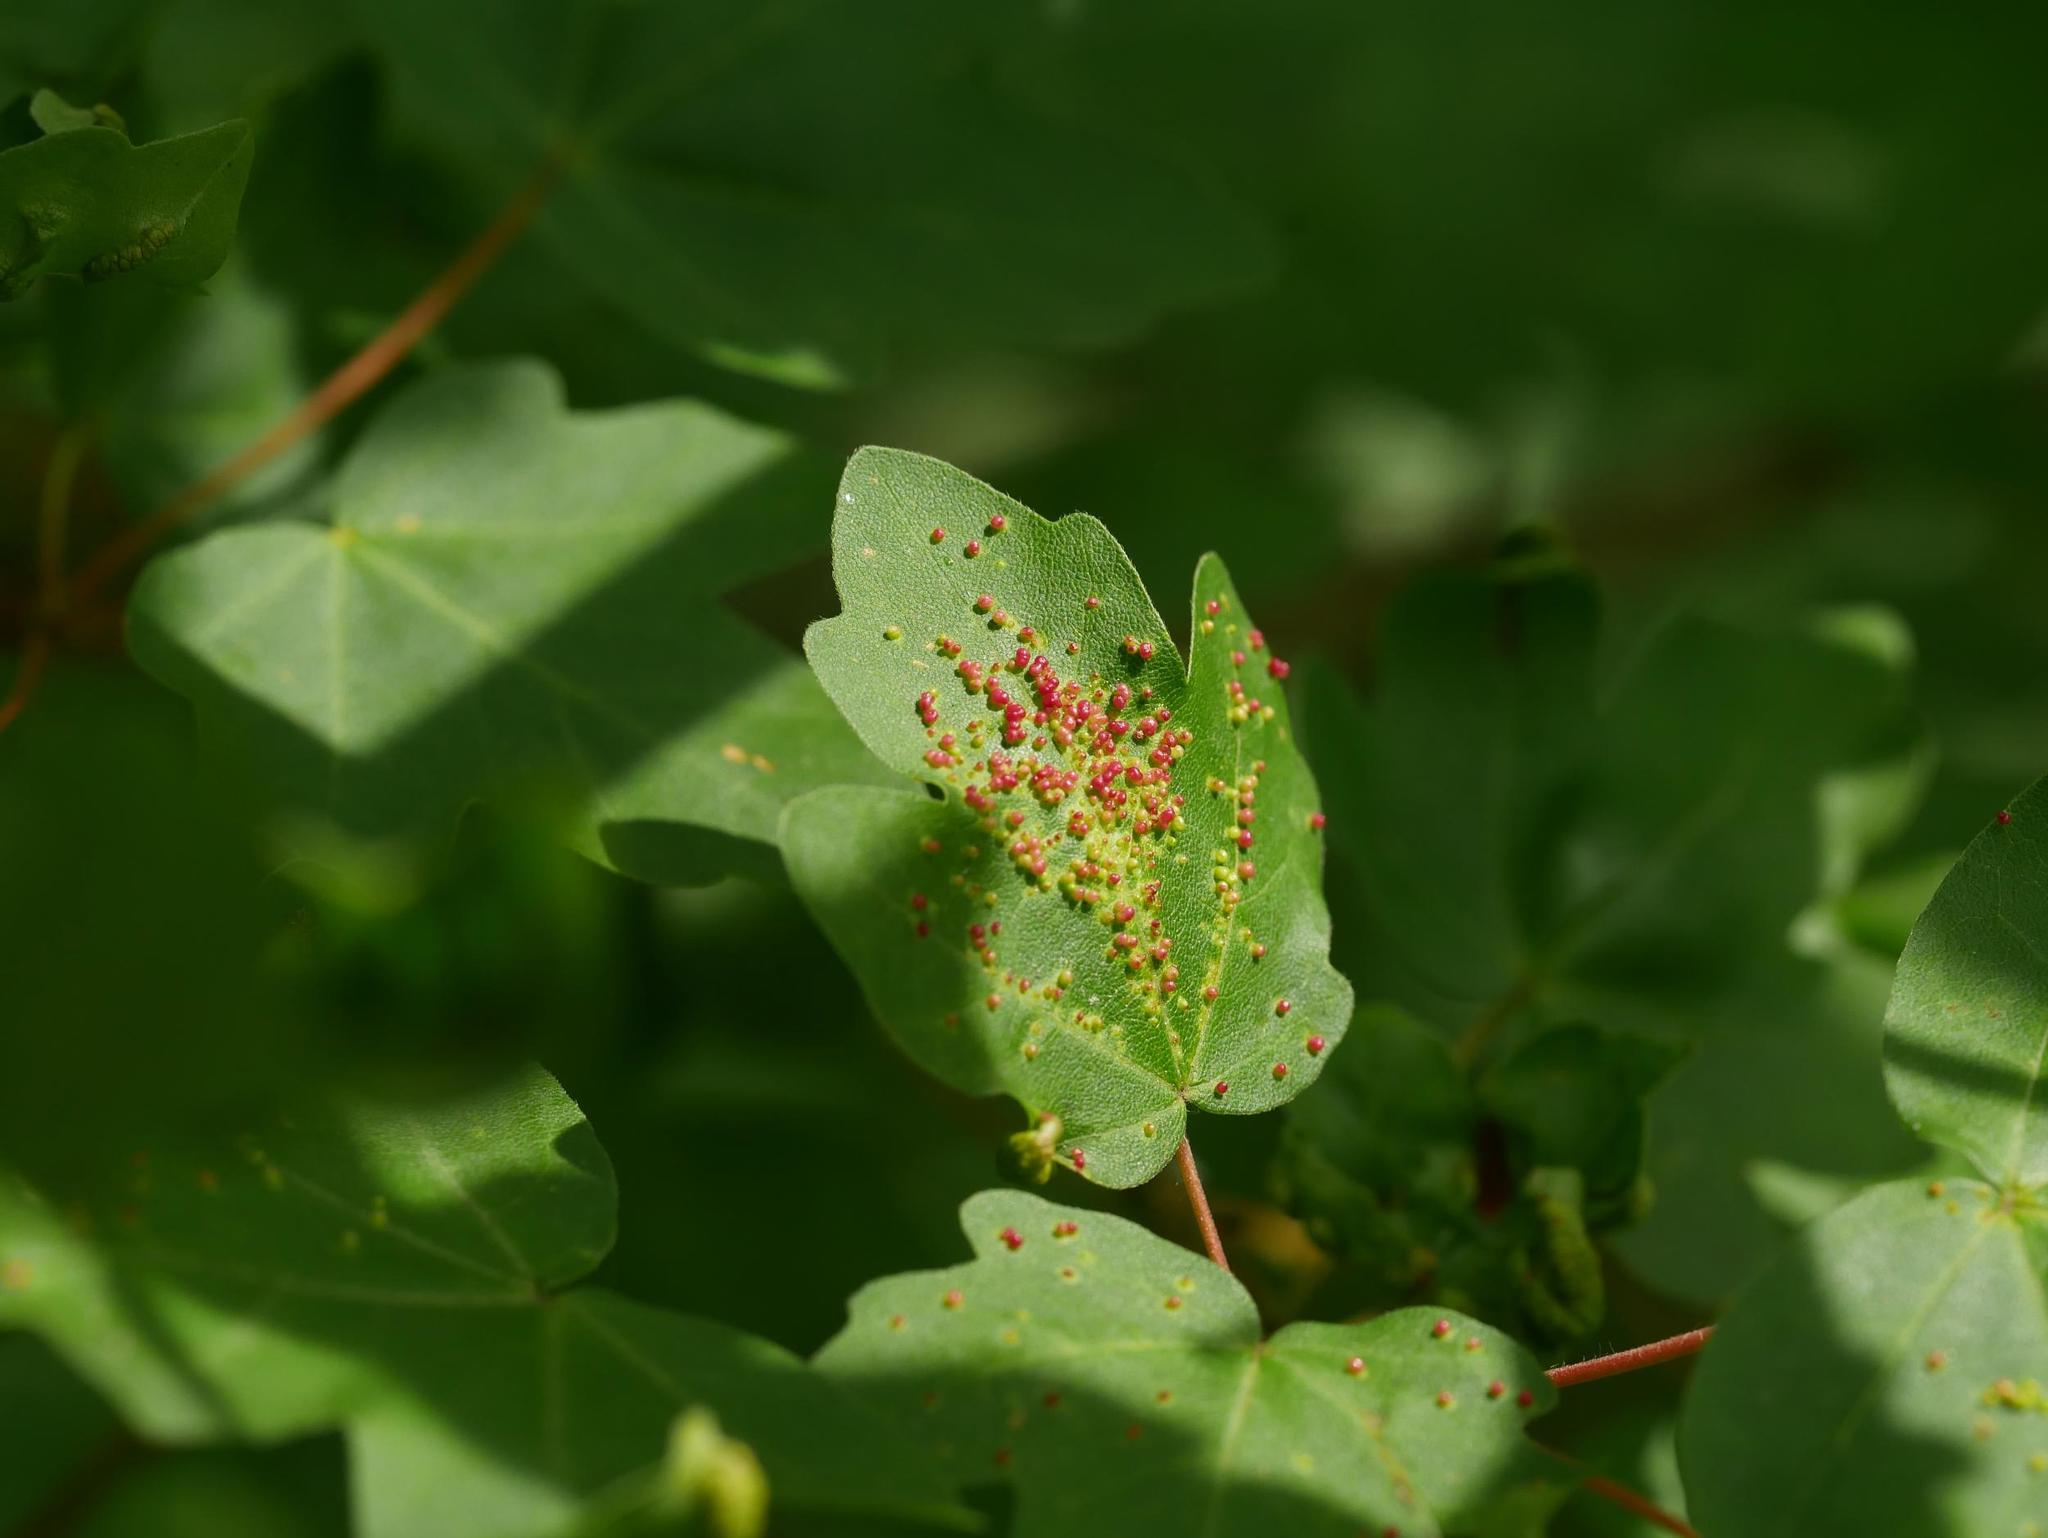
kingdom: Animalia
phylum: Arthropoda
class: Arachnida
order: Trombidiformes
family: Eriophyidae
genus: Aceria
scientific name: Aceria myriadeum
